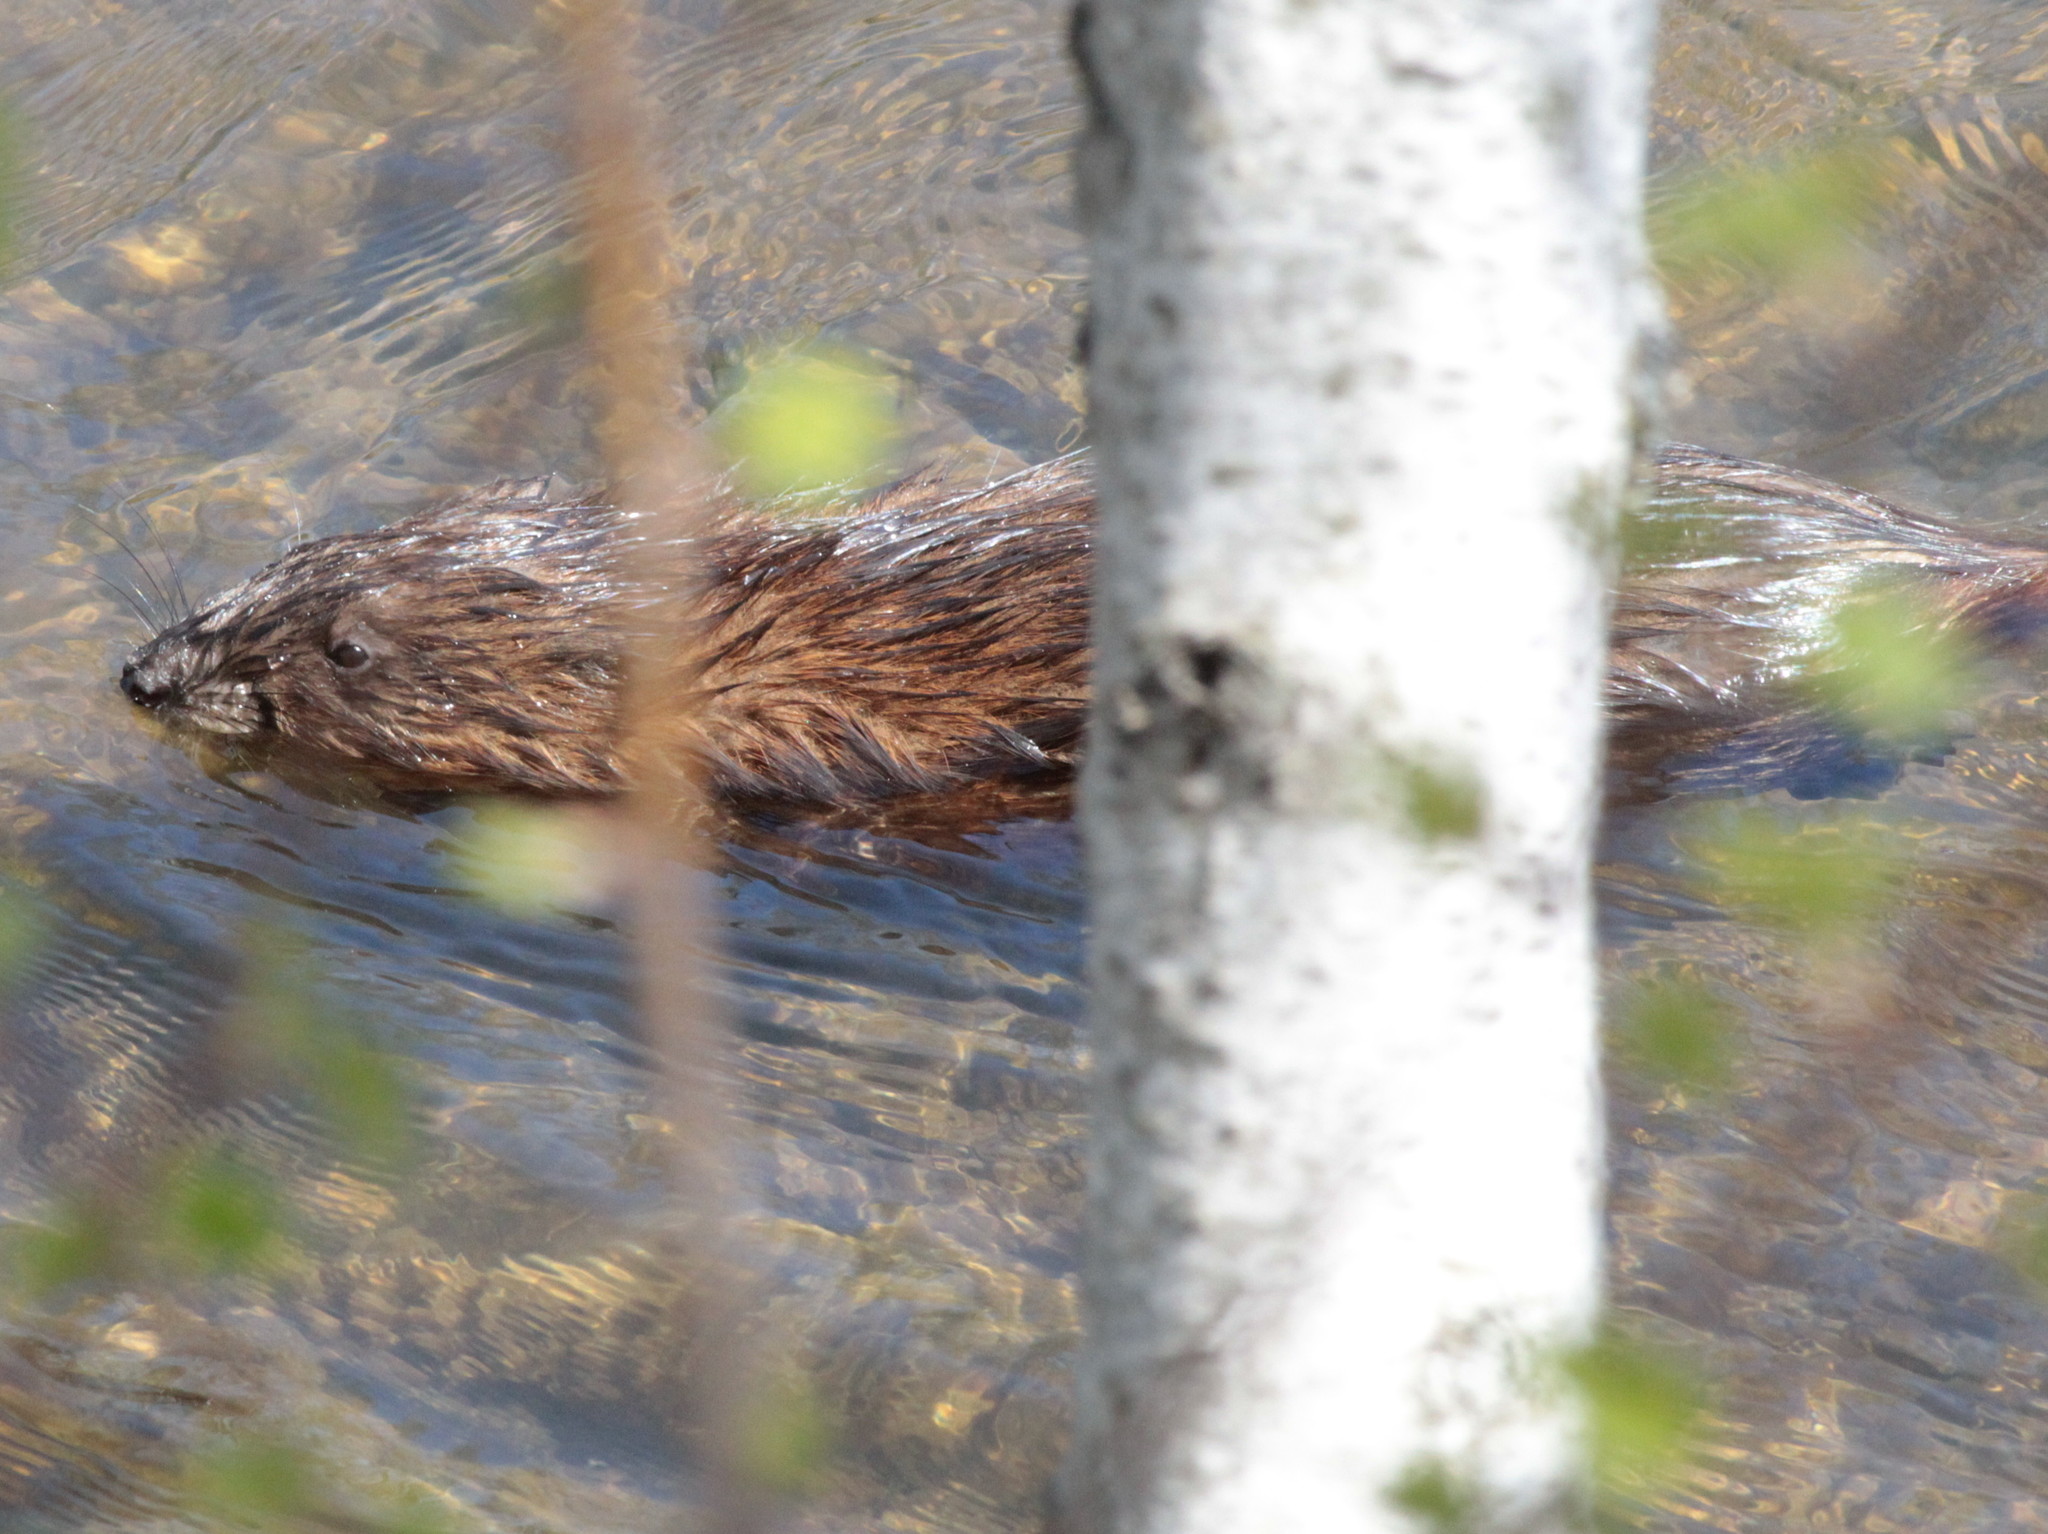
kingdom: Animalia
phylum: Chordata
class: Mammalia
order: Rodentia
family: Cricetidae
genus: Ondatra
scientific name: Ondatra zibethicus
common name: Muskrat
